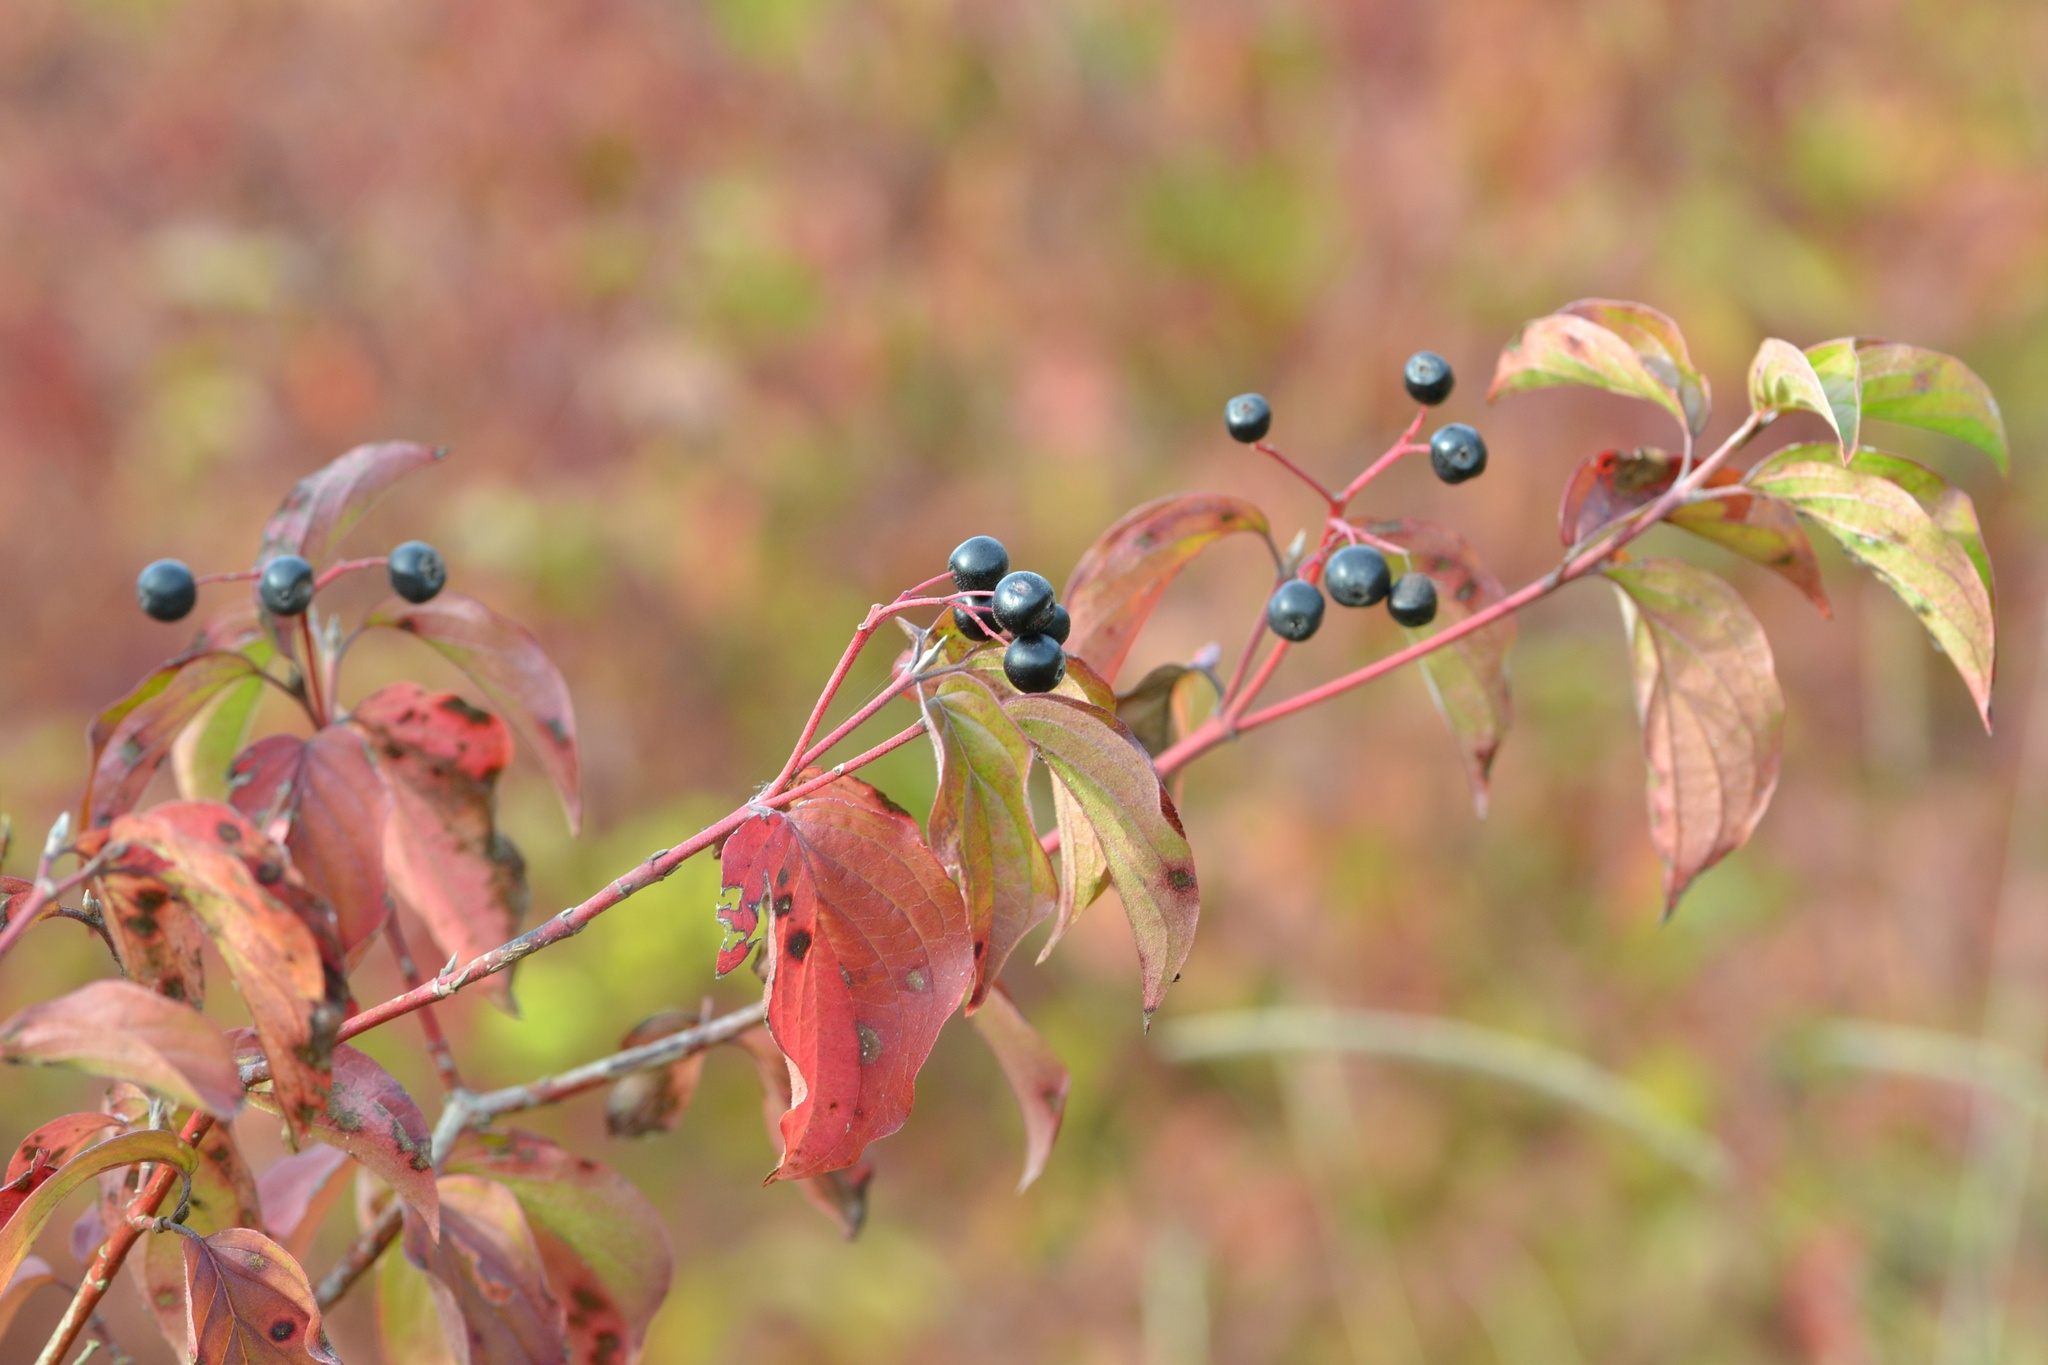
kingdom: Plantae
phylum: Tracheophyta
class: Magnoliopsida
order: Cornales
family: Cornaceae
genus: Cornus
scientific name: Cornus sanguinea
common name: Dogwood
